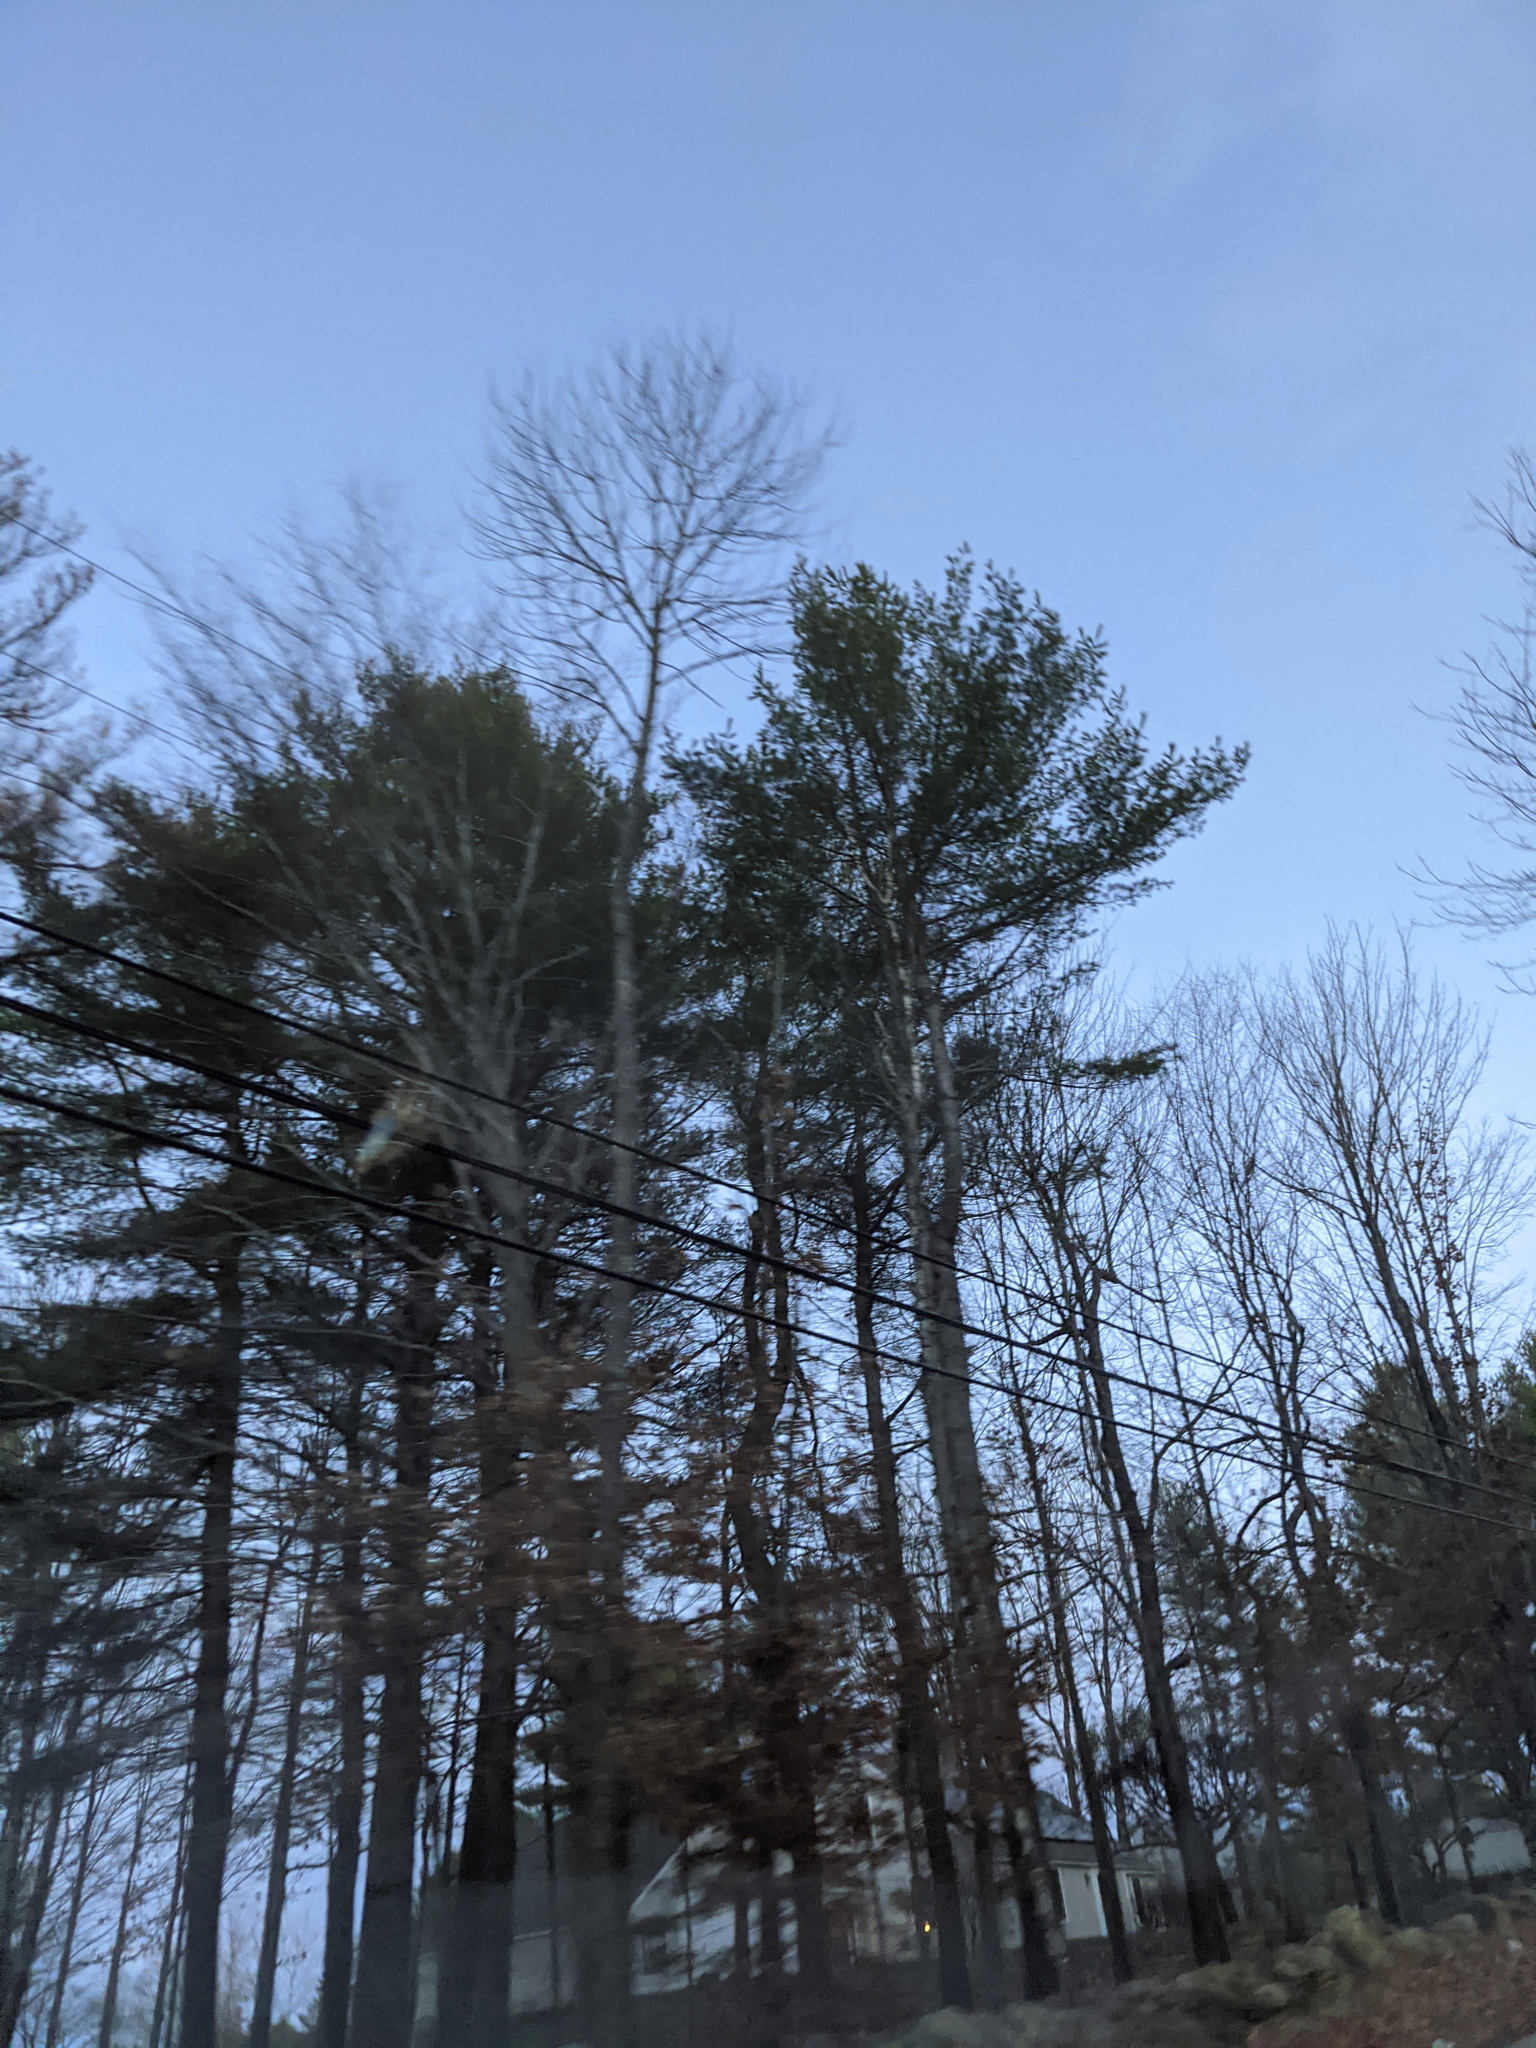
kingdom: Plantae
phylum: Tracheophyta
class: Pinopsida
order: Pinales
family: Pinaceae
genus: Pinus
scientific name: Pinus strobus
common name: Weymouth pine
